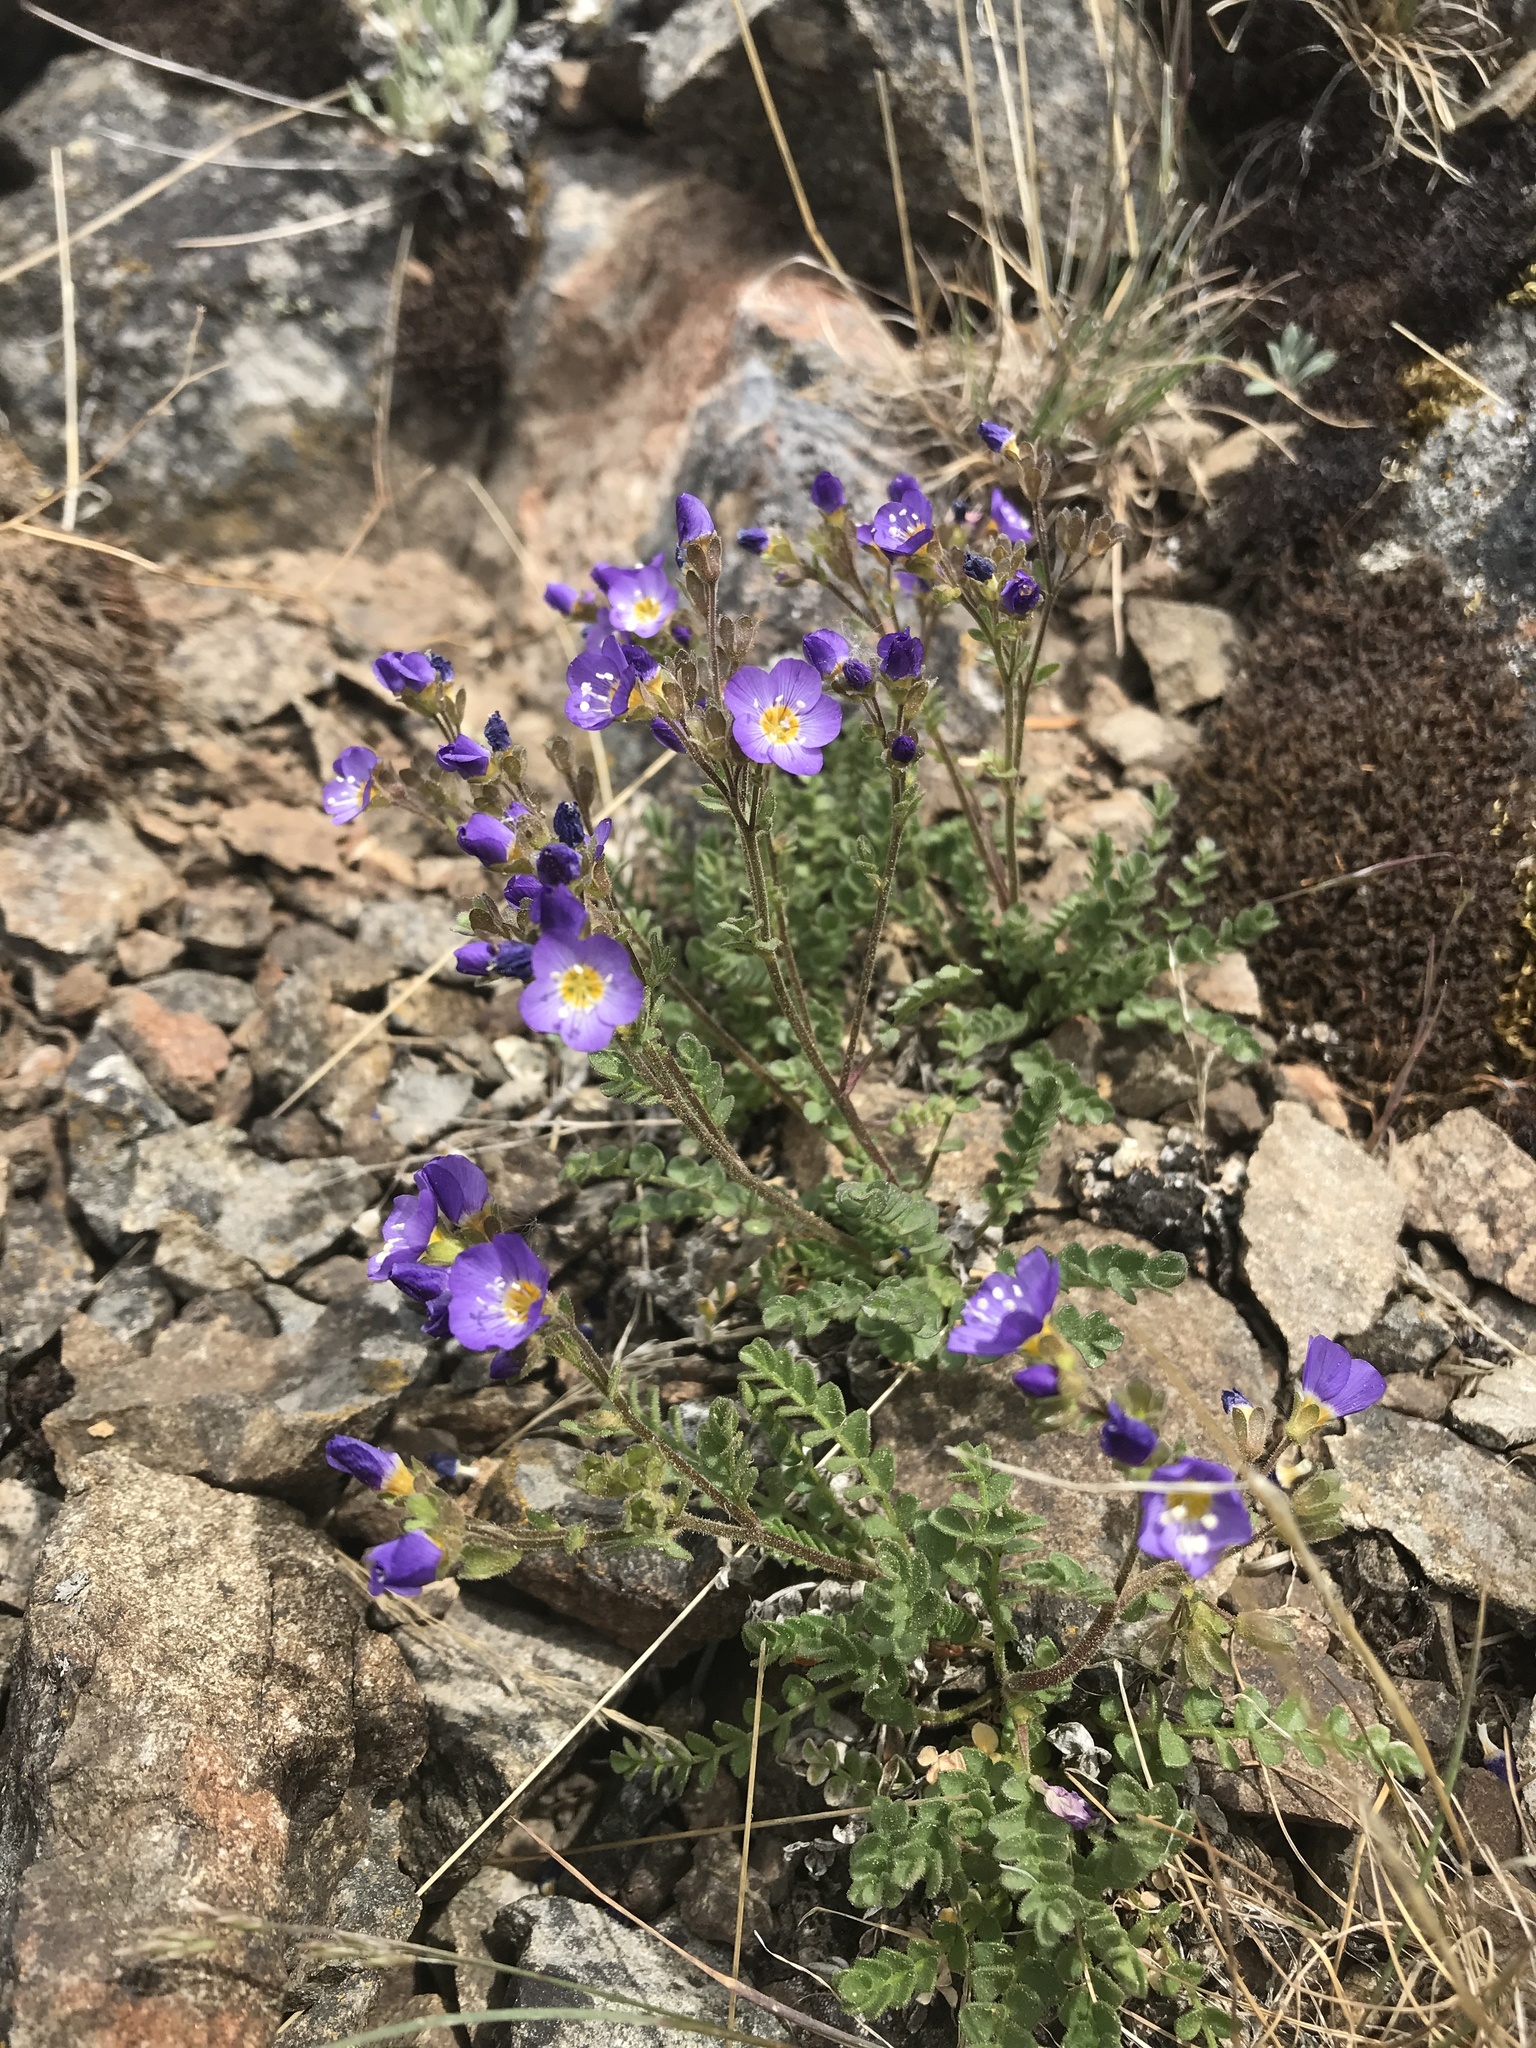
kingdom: Plantae
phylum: Tracheophyta
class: Magnoliopsida
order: Ericales
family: Polemoniaceae
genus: Polemonium
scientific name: Polemonium pulcherrimum
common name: Short jacob's-ladder
